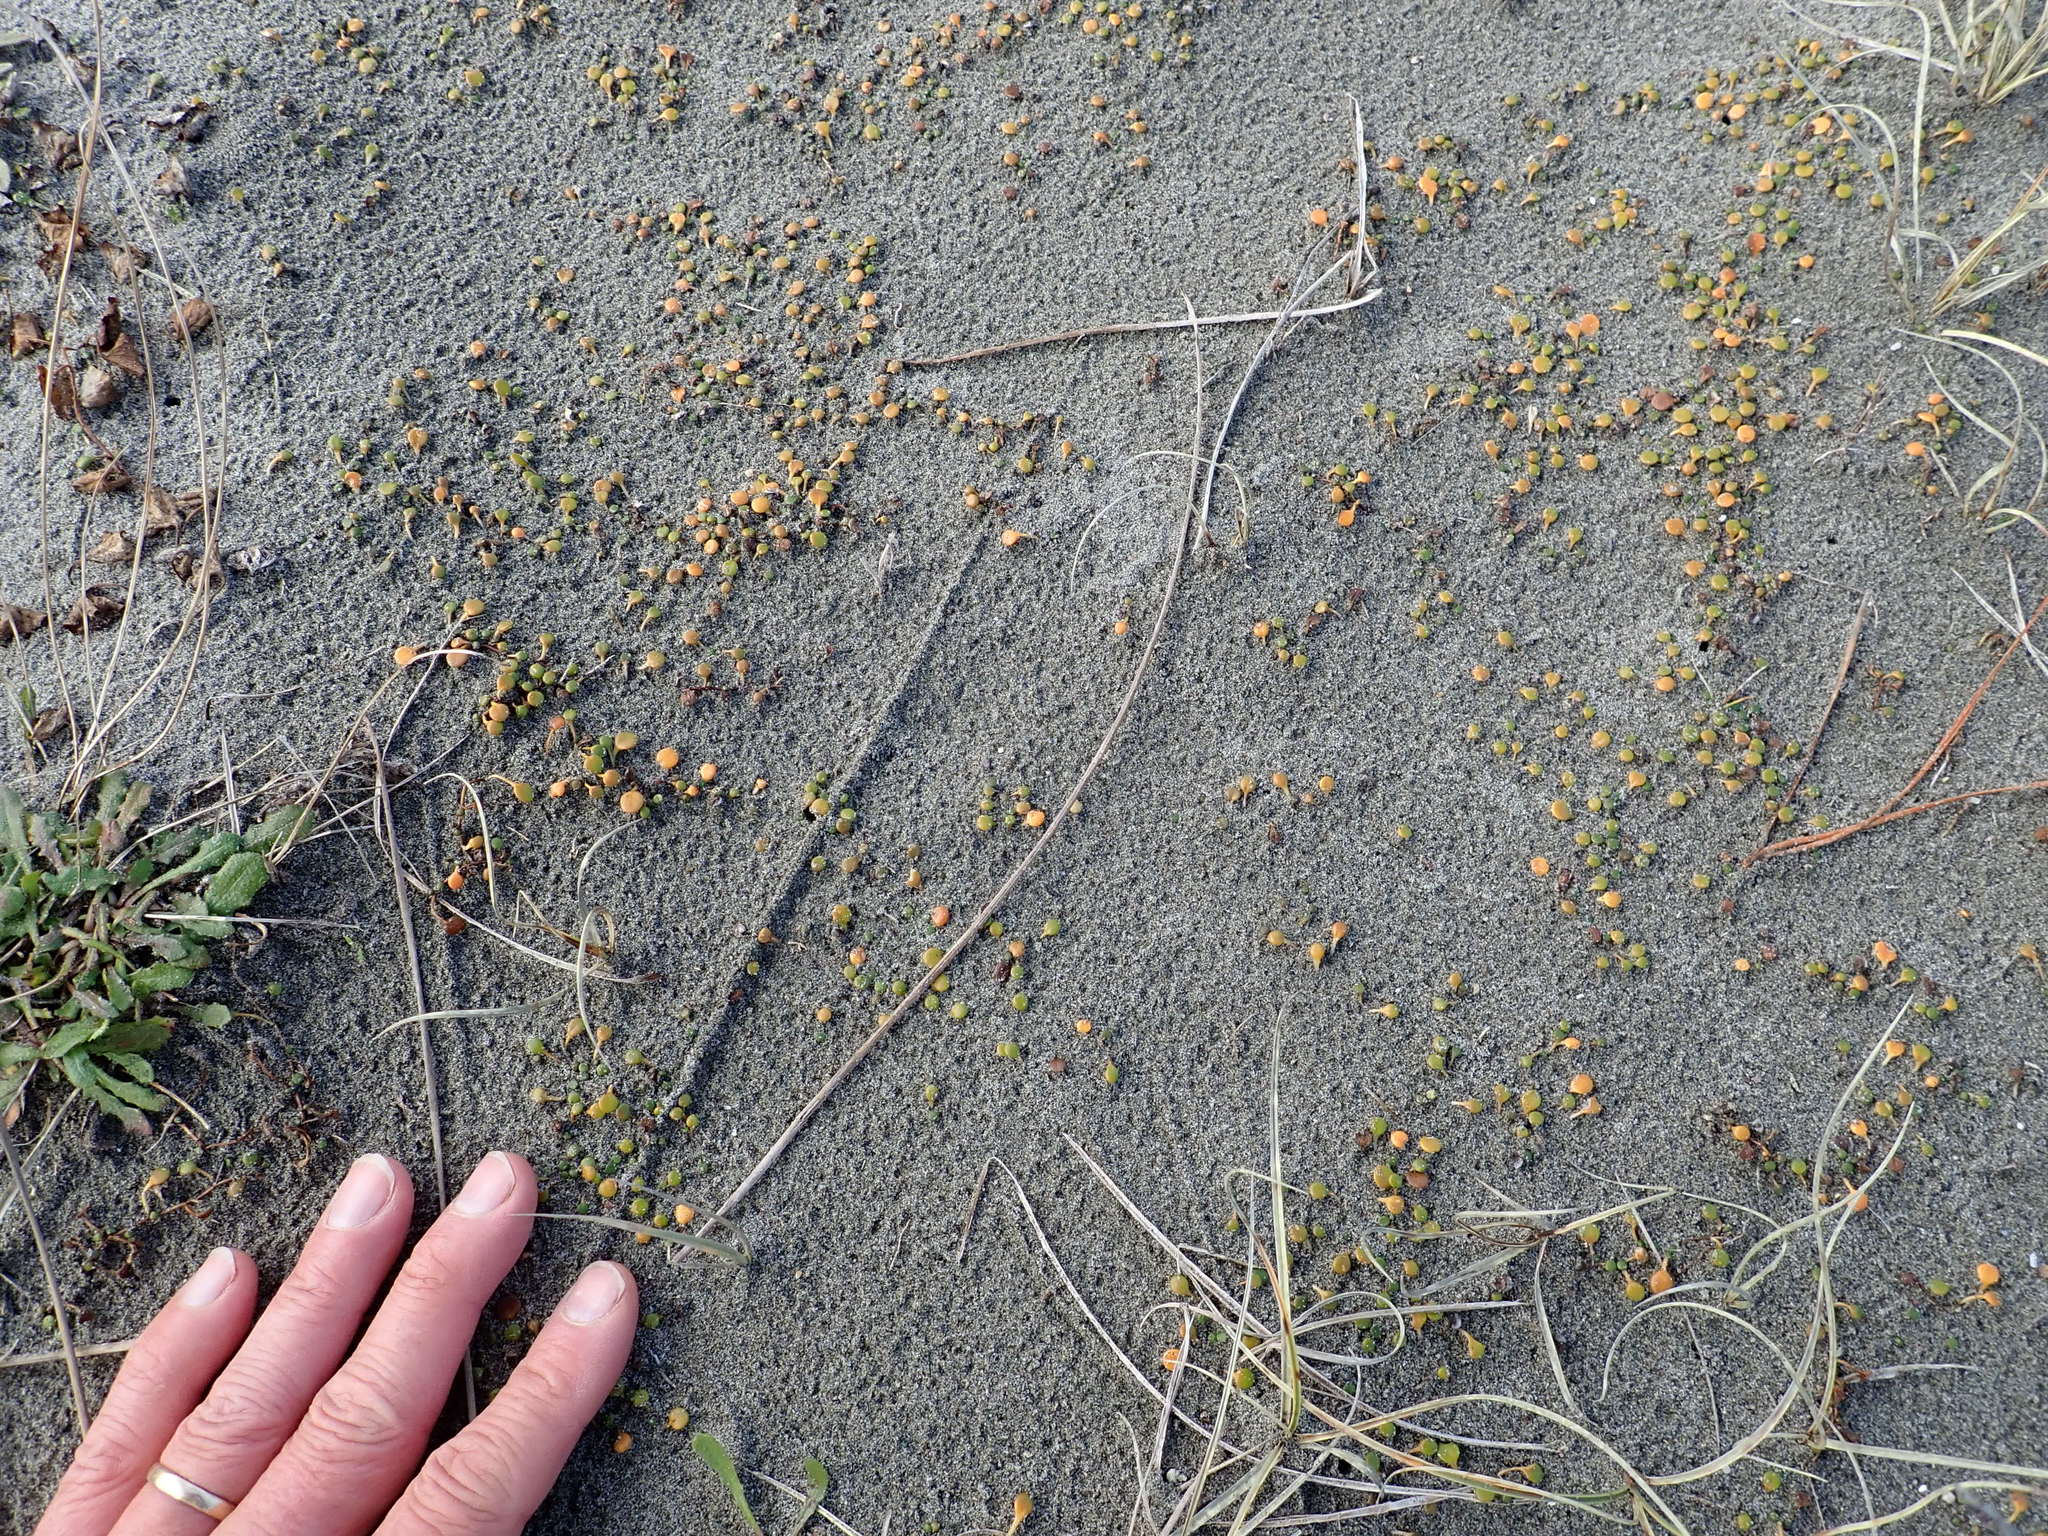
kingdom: Plantae
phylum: Tracheophyta
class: Magnoliopsida
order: Asterales
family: Goodeniaceae
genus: Goodenia
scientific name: Goodenia heenanii
